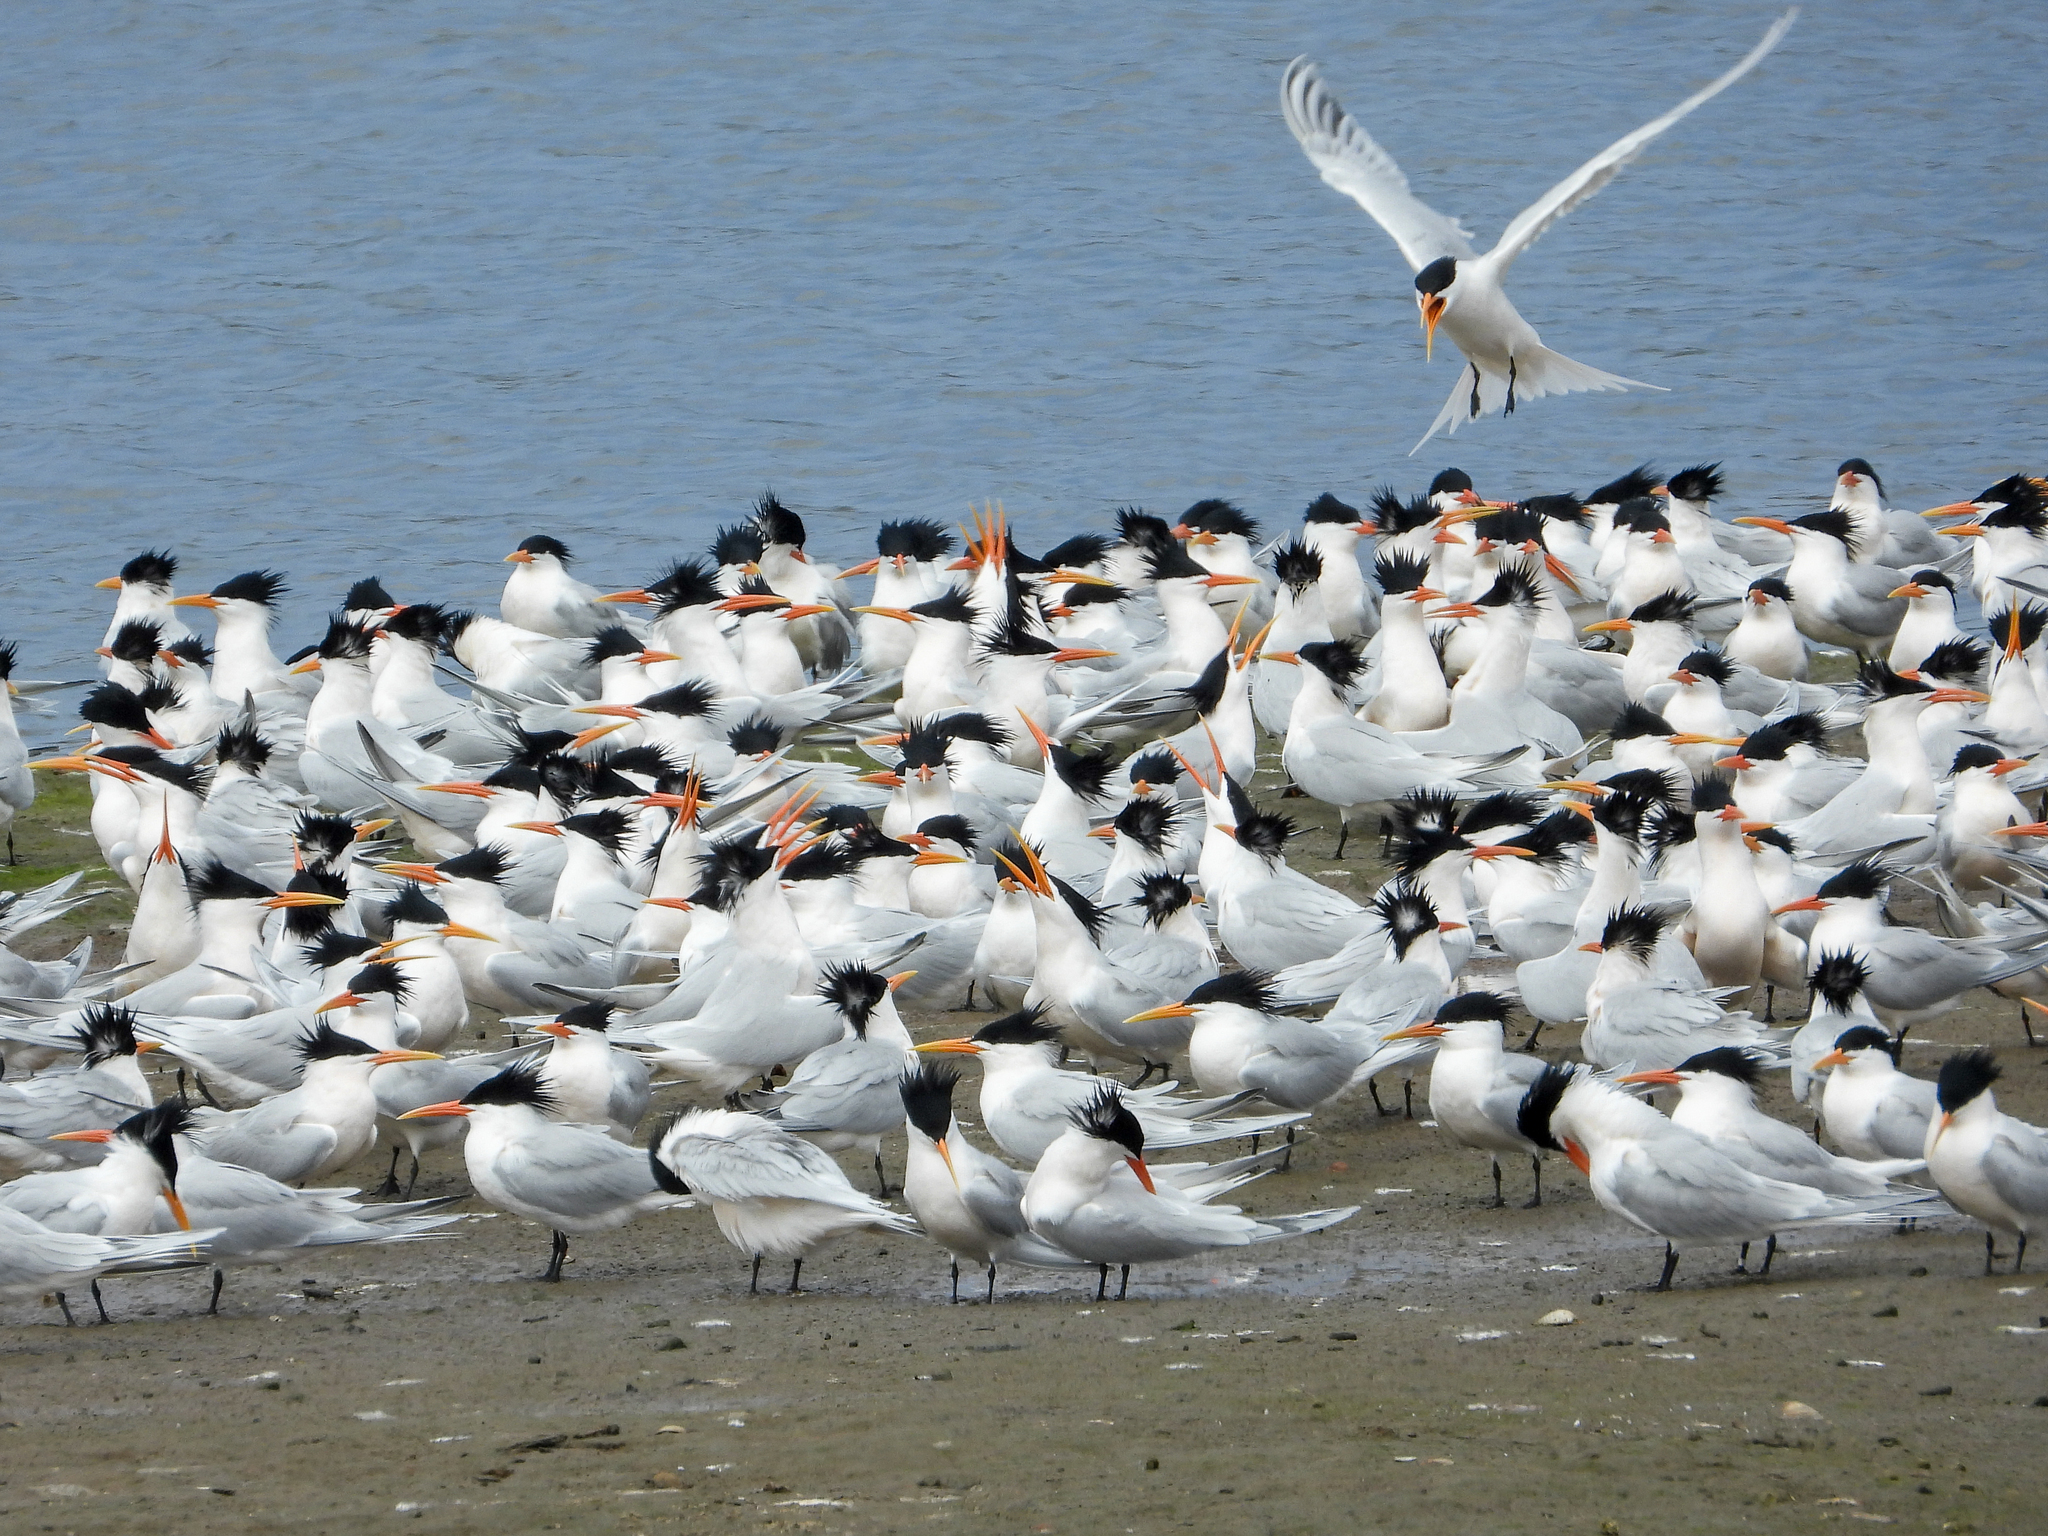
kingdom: Animalia
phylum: Chordata
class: Aves
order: Charadriiformes
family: Laridae
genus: Thalasseus
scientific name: Thalasseus elegans
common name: Elegant tern
